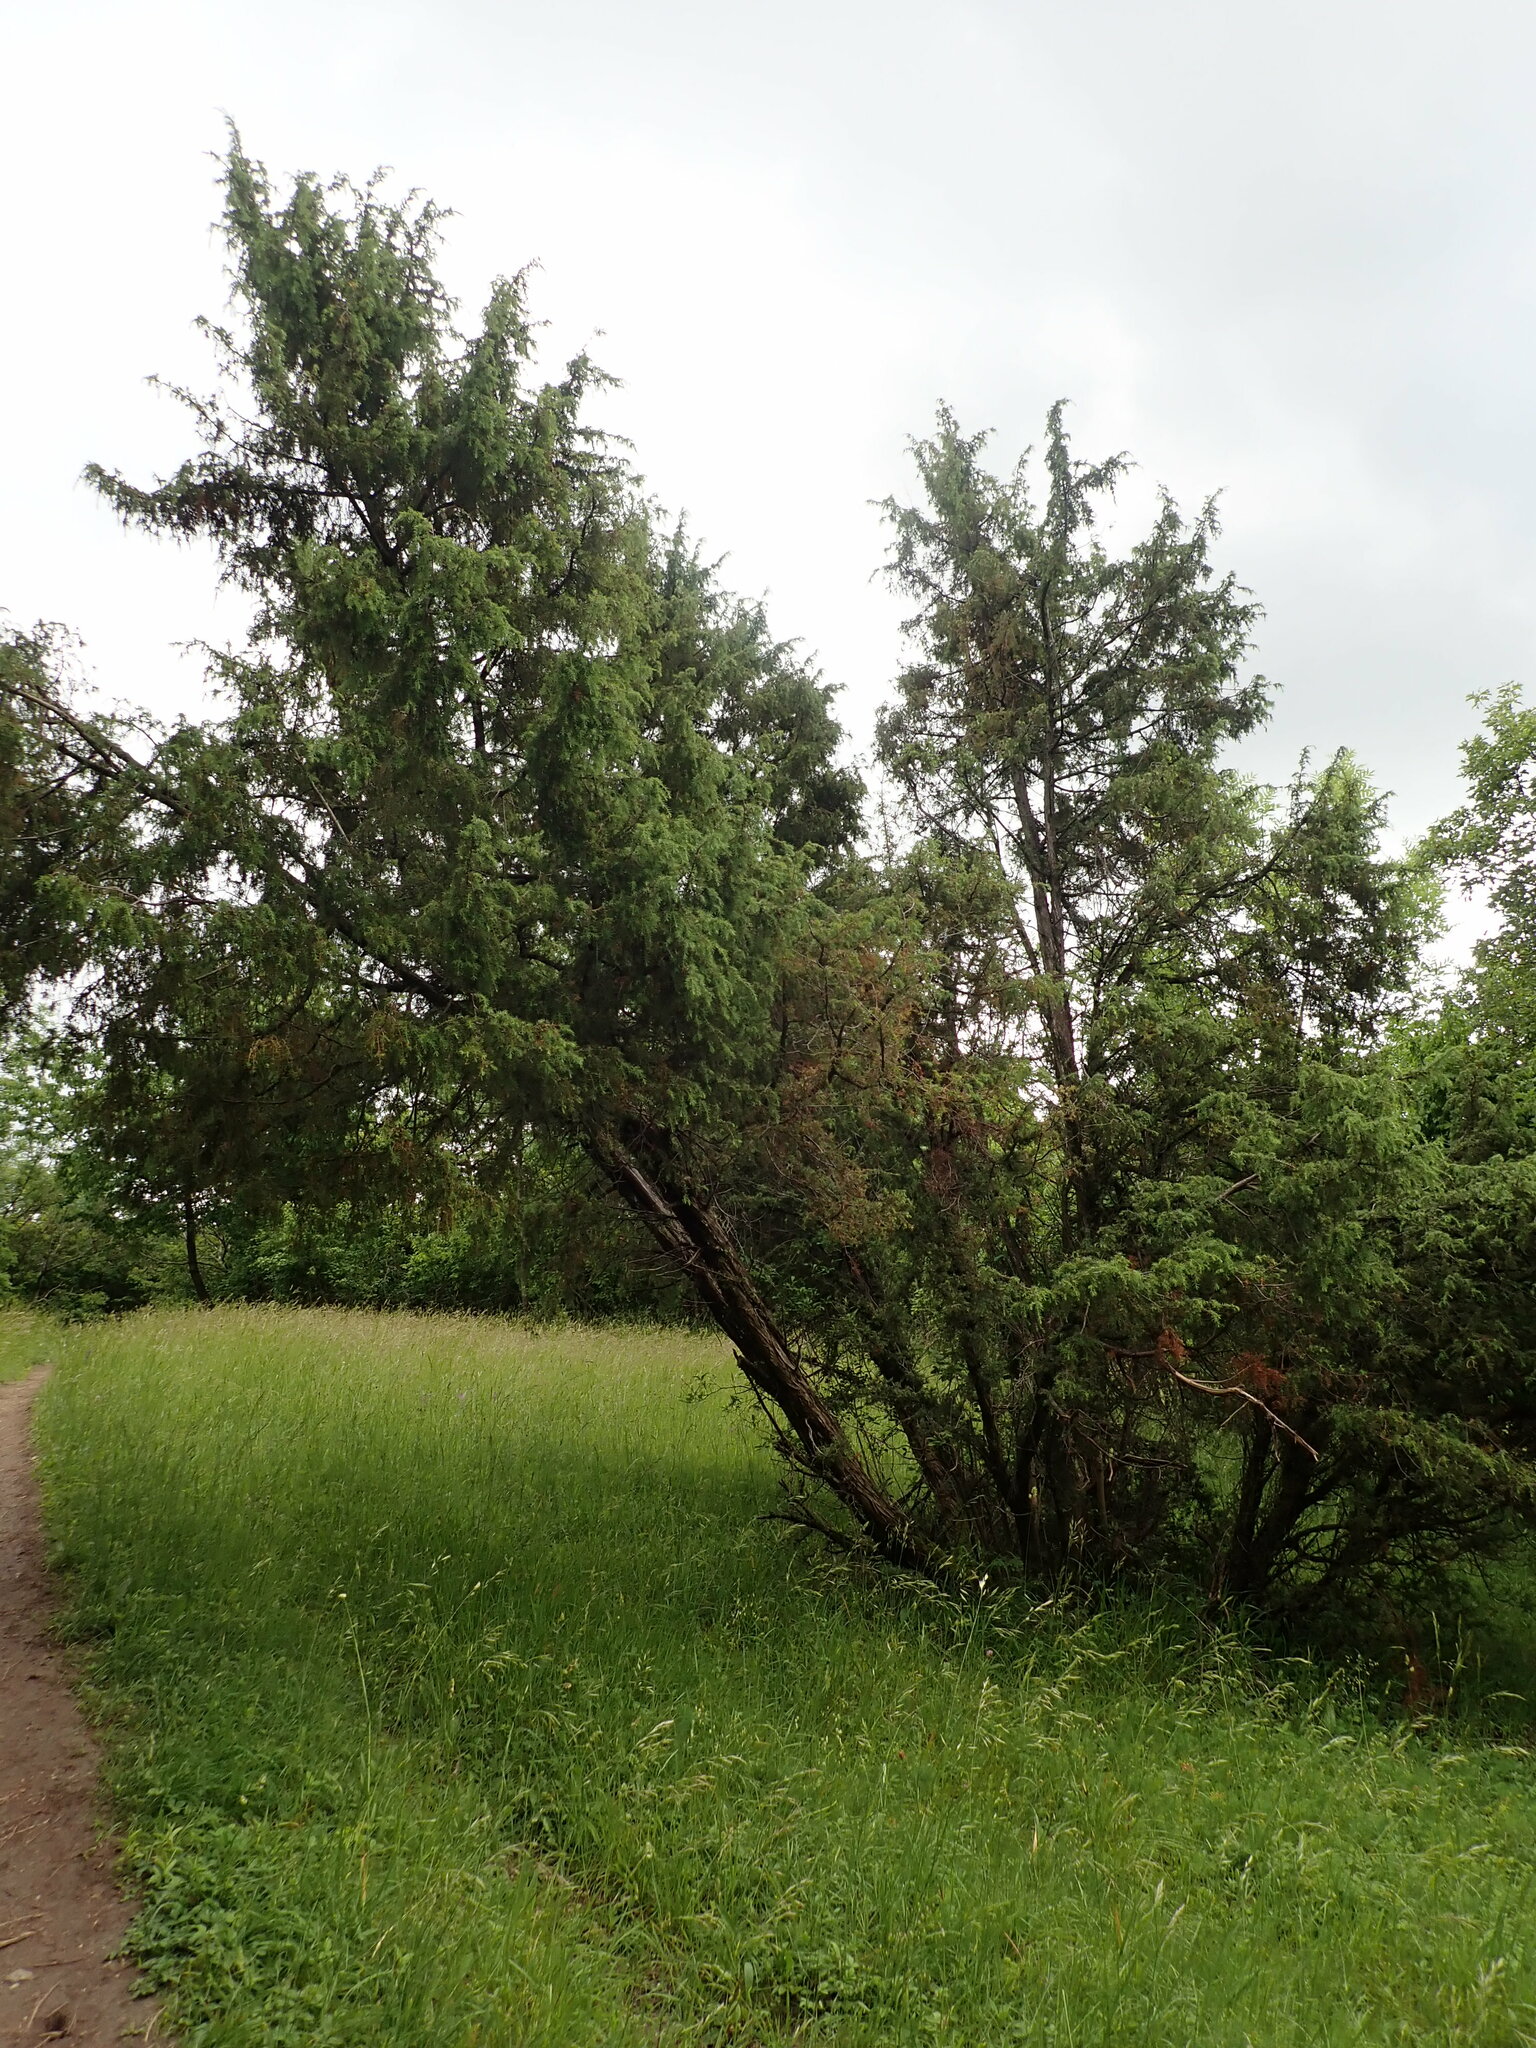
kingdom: Plantae
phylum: Tracheophyta
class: Pinopsida
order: Pinales
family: Cupressaceae
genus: Juniperus
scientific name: Juniperus communis
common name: Common juniper
